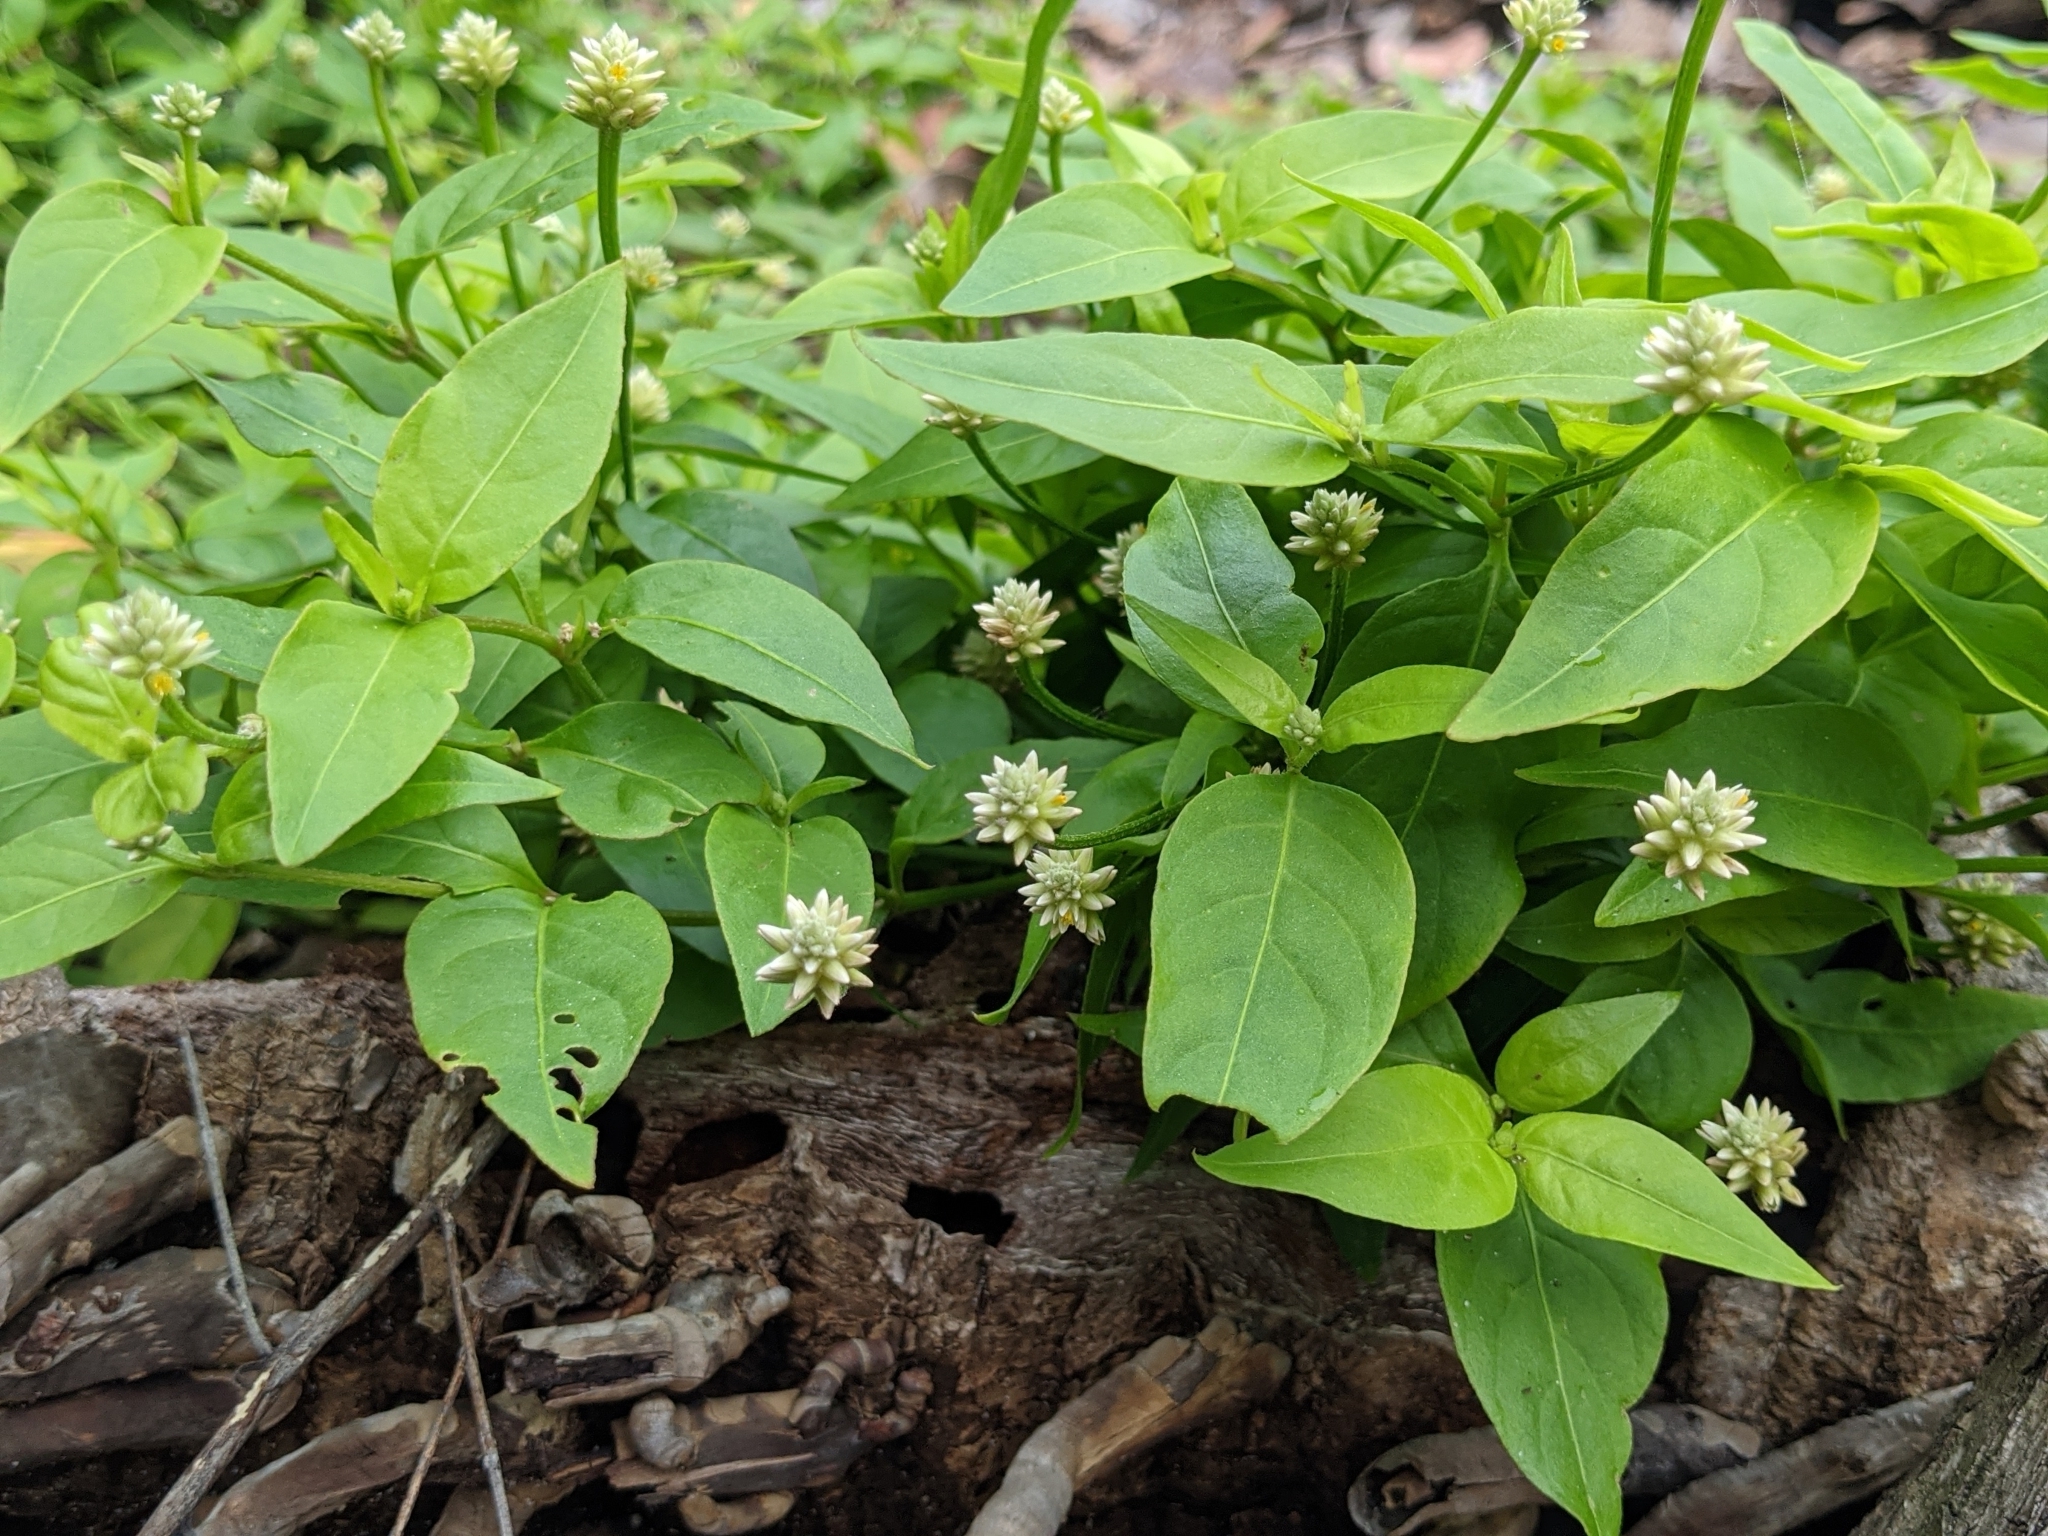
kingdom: Plantae
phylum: Tracheophyta
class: Magnoliopsida
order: Caryophyllales
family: Amaranthaceae
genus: Alternanthera
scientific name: Alternanthera flavescens
